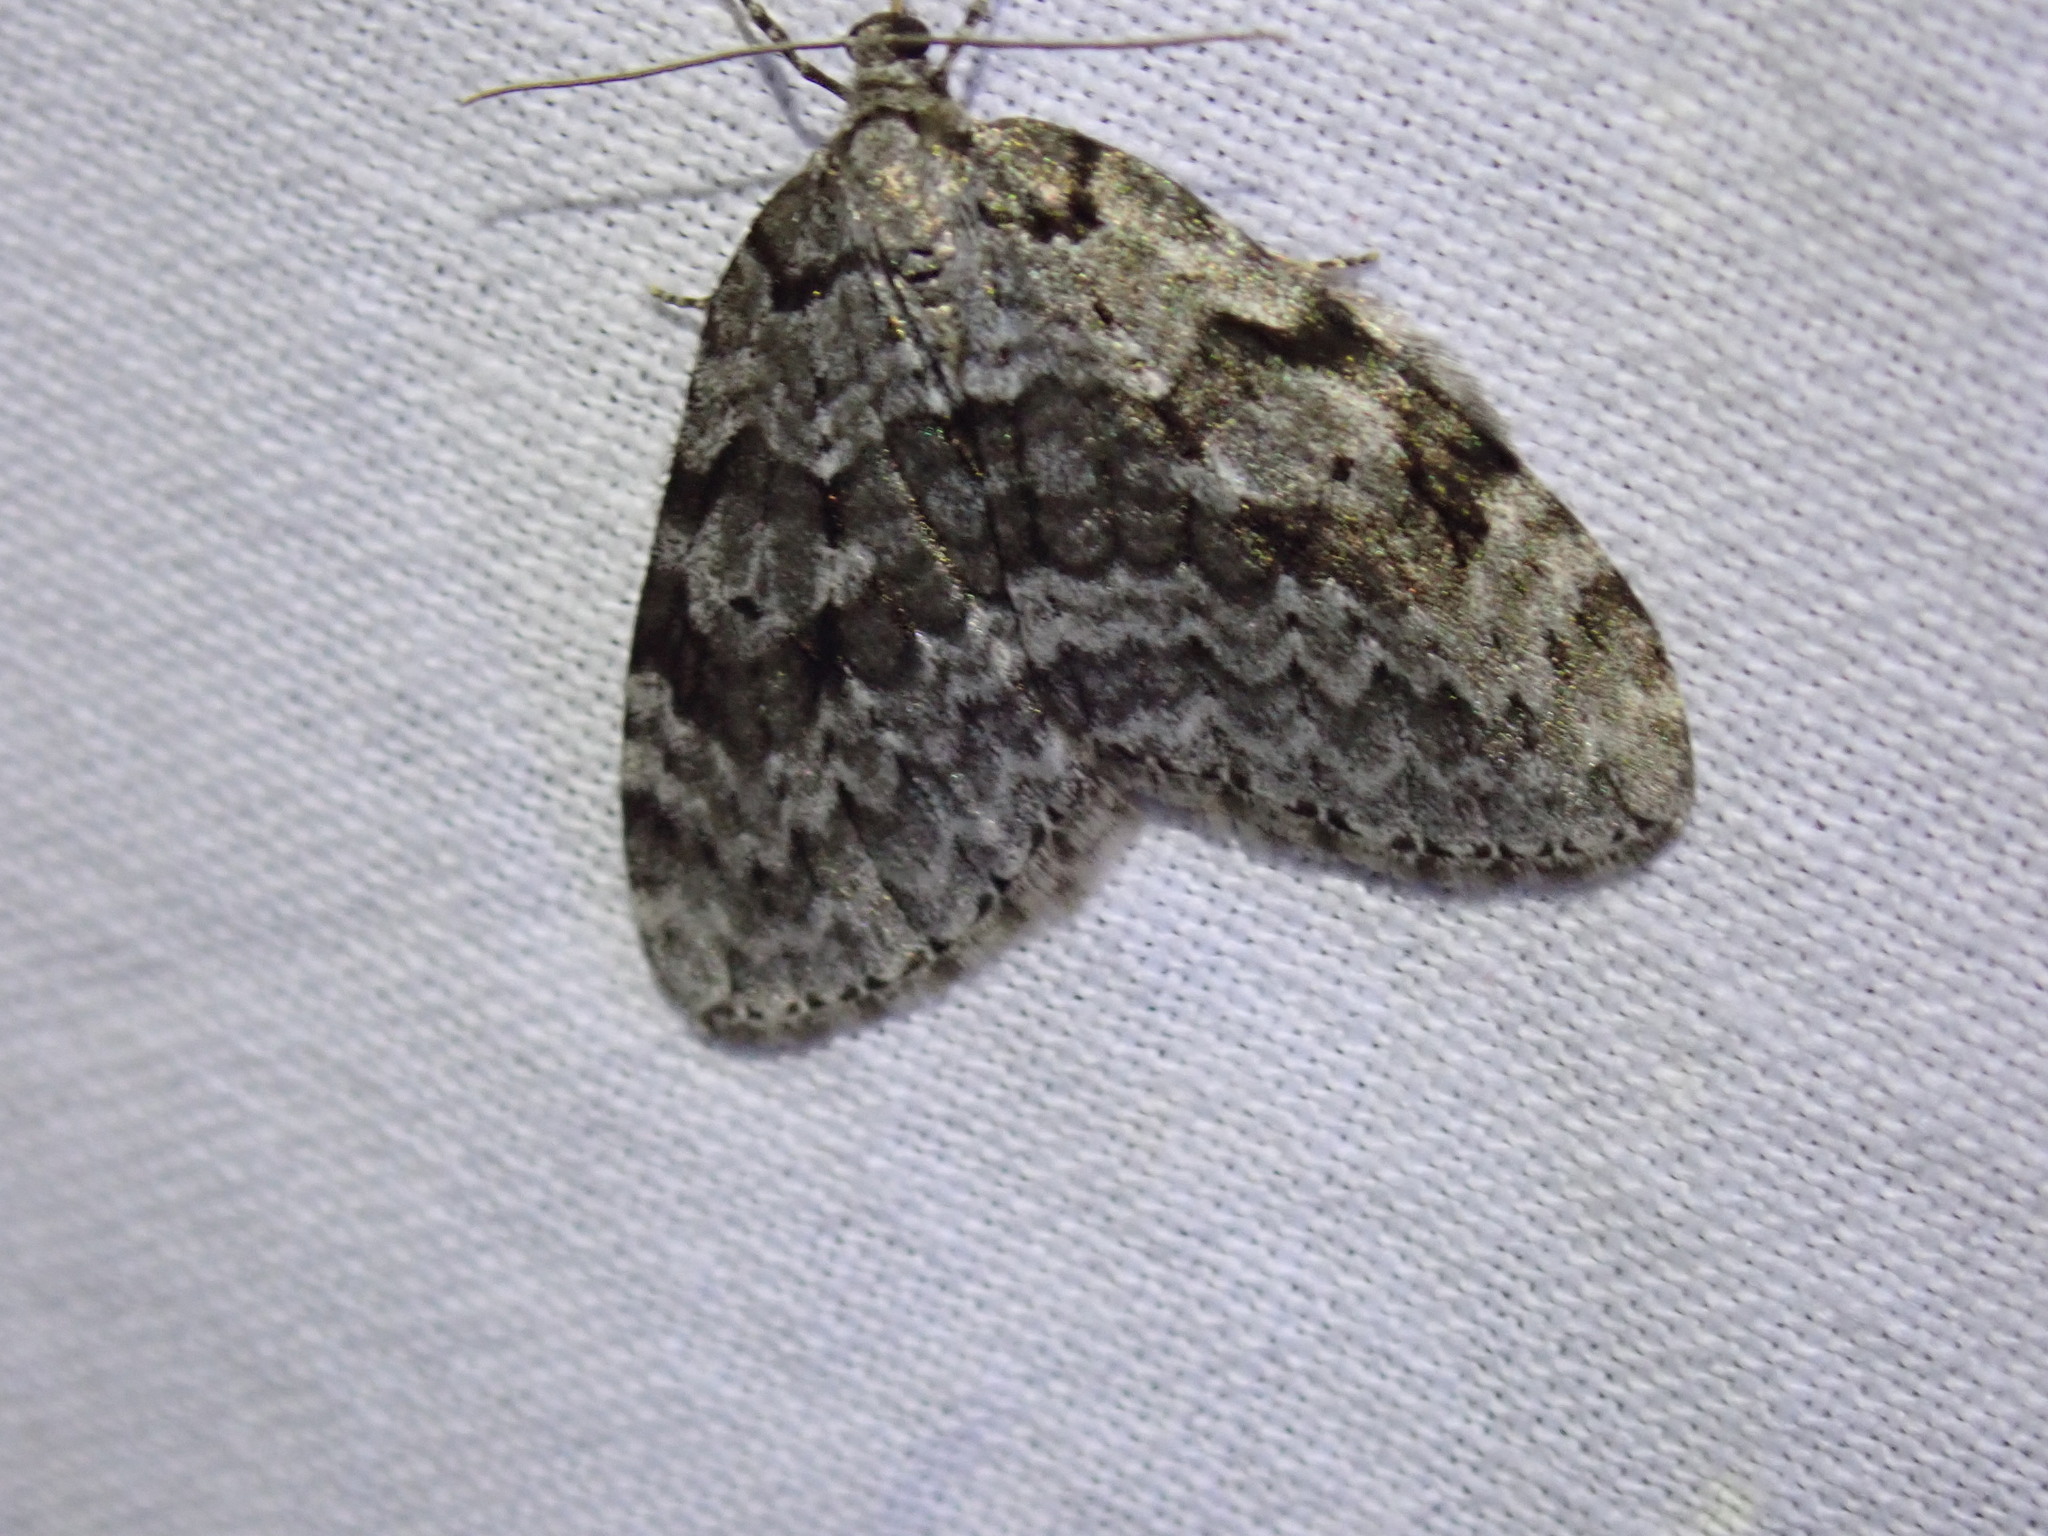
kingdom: Animalia
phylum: Arthropoda
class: Insecta
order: Lepidoptera
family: Geometridae
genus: Epirrita
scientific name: Epirrita autumnata
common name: Autumnal moth
